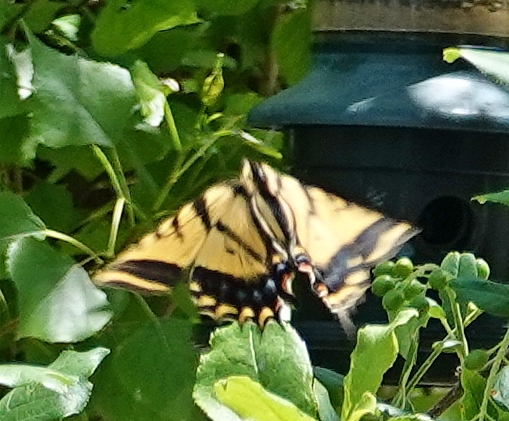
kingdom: Animalia
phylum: Arthropoda
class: Insecta
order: Lepidoptera
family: Papilionidae
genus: Papilio
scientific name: Papilio multicaudata
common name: Two-tailed tiger swallowtail
